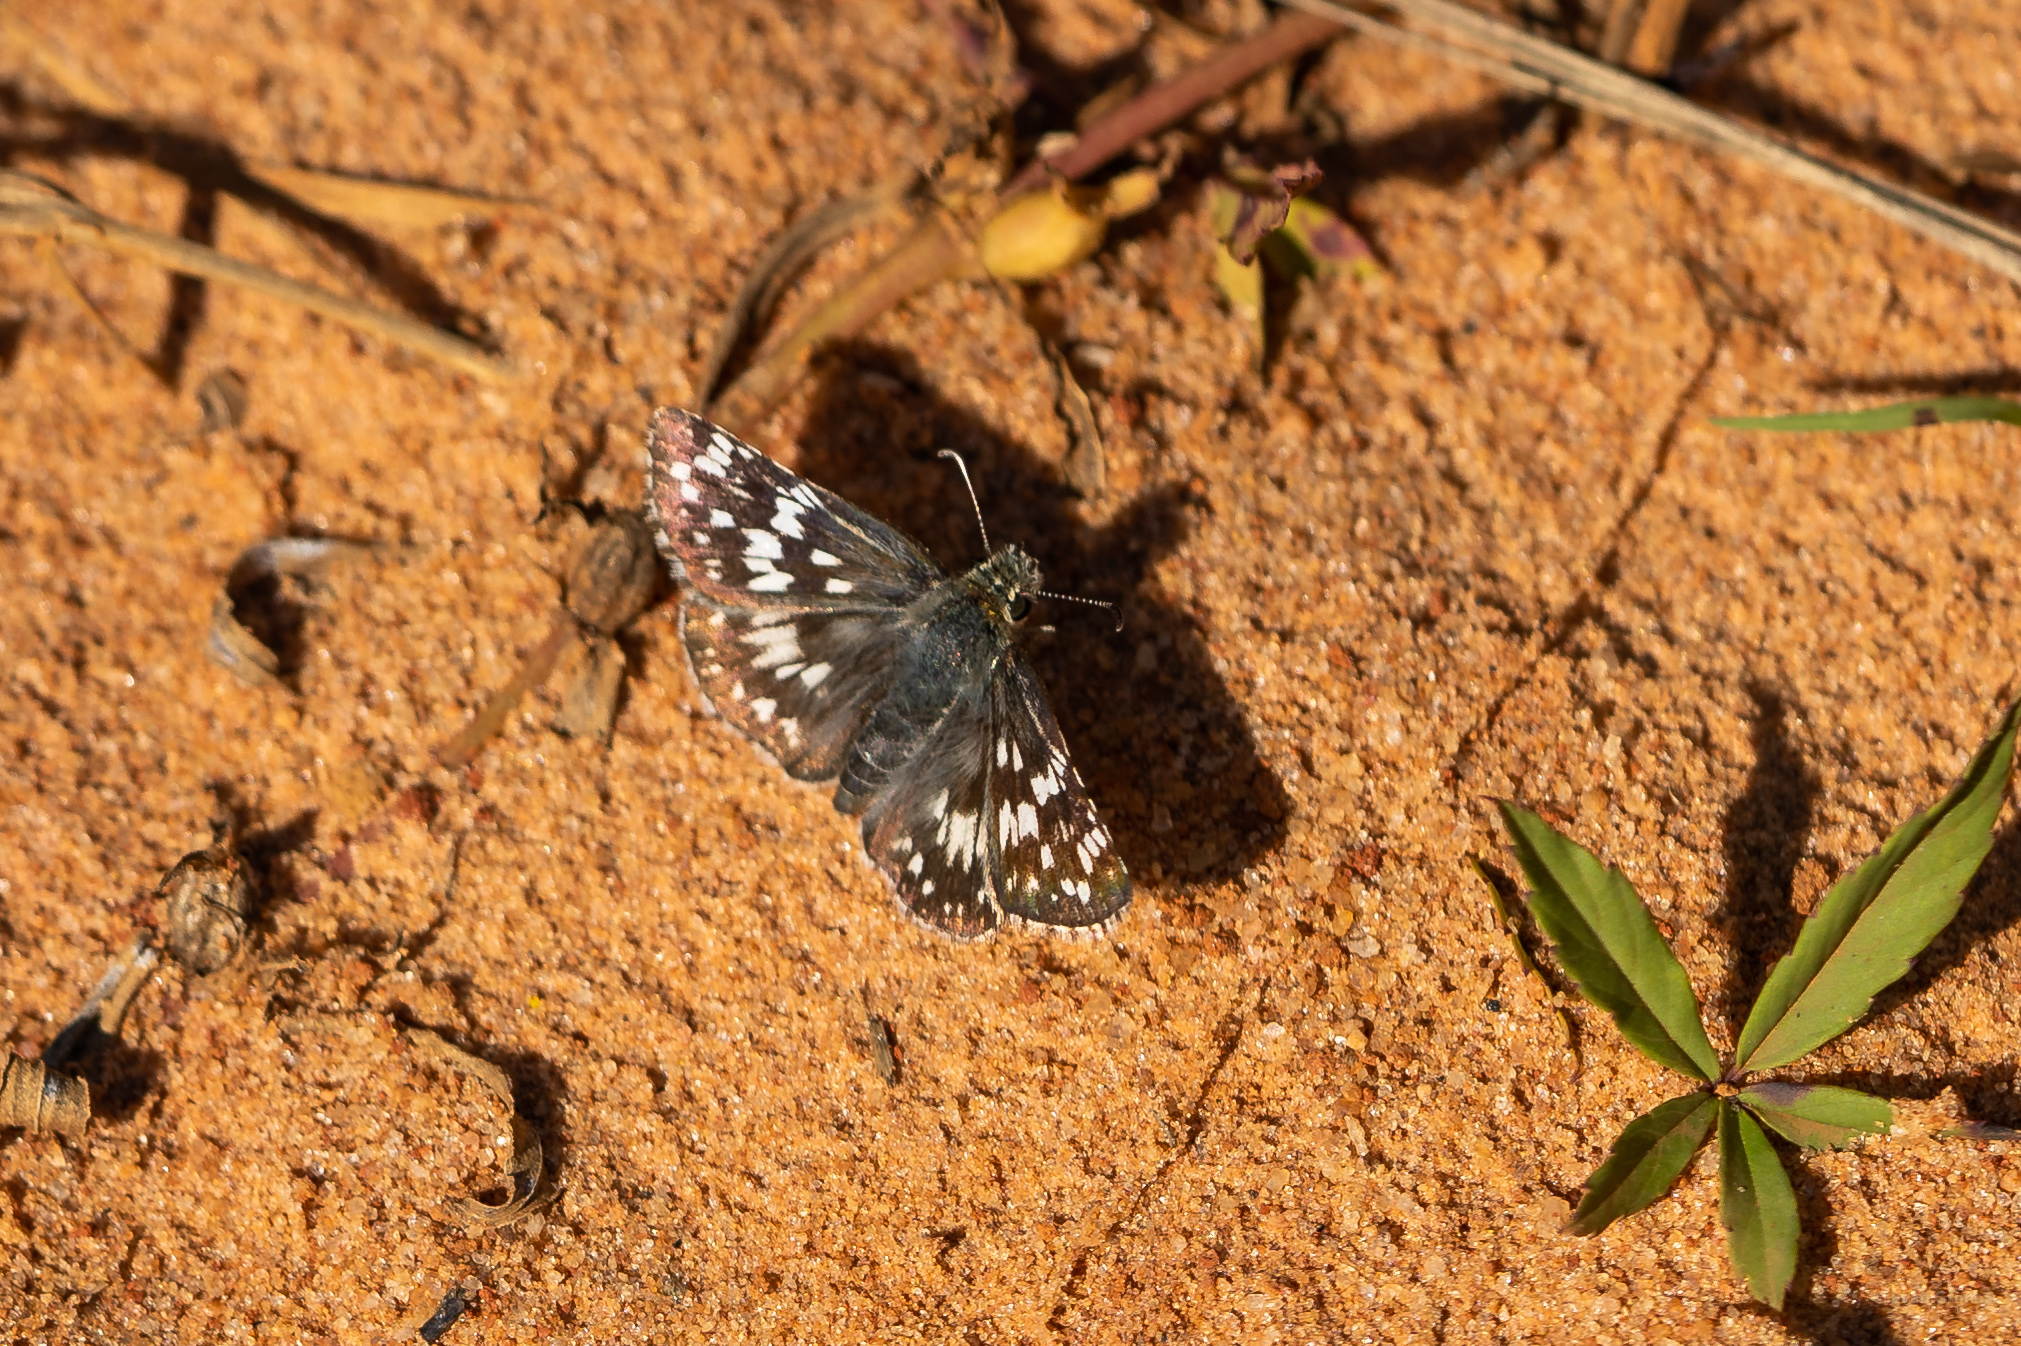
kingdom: Animalia
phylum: Arthropoda
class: Insecta
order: Lepidoptera
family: Hesperiidae
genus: Burnsius
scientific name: Burnsius albezens
